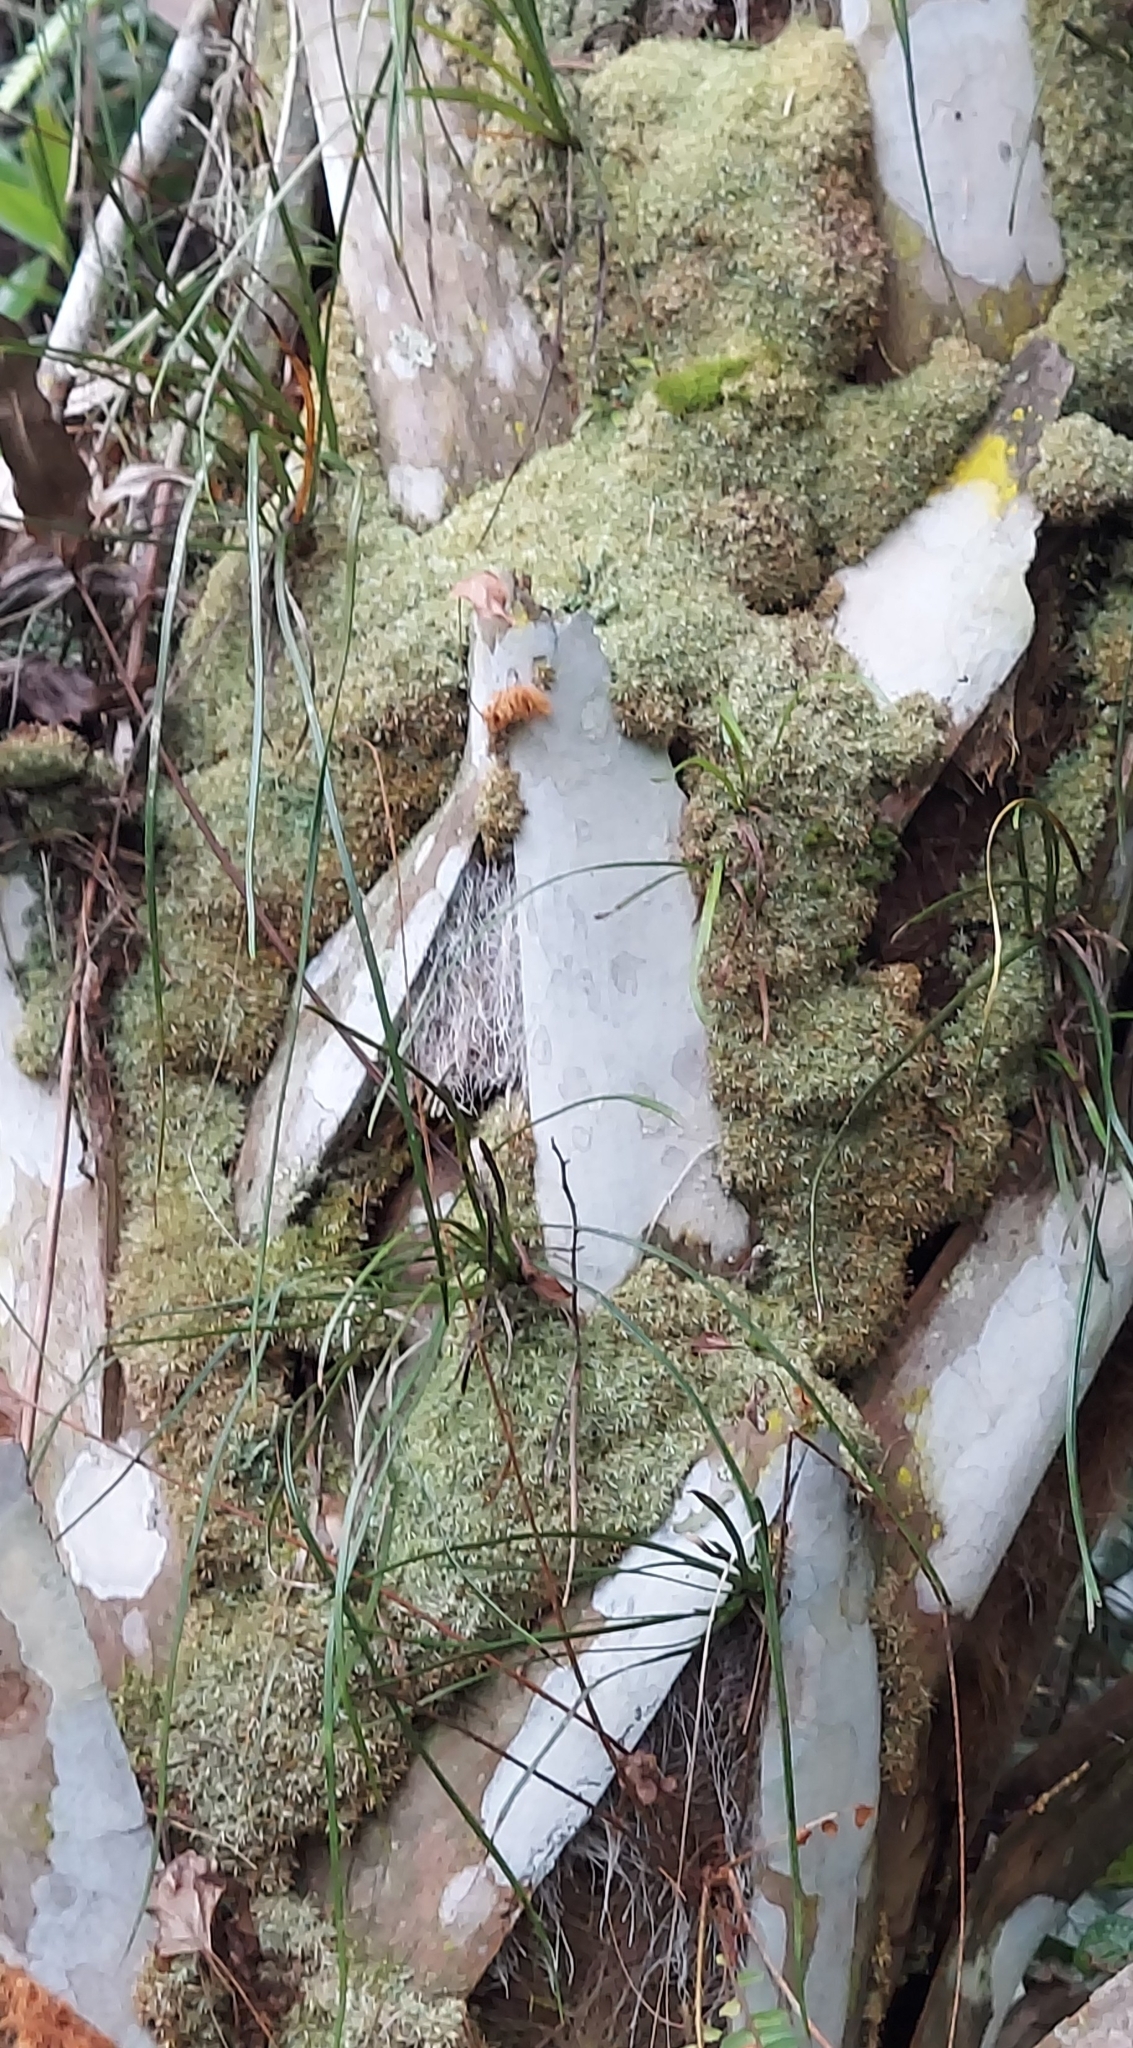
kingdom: Plantae
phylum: Bryophyta
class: Bryopsida
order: Dicranales
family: Octoblepharaceae
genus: Octoblepharum
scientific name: Octoblepharum albidum
